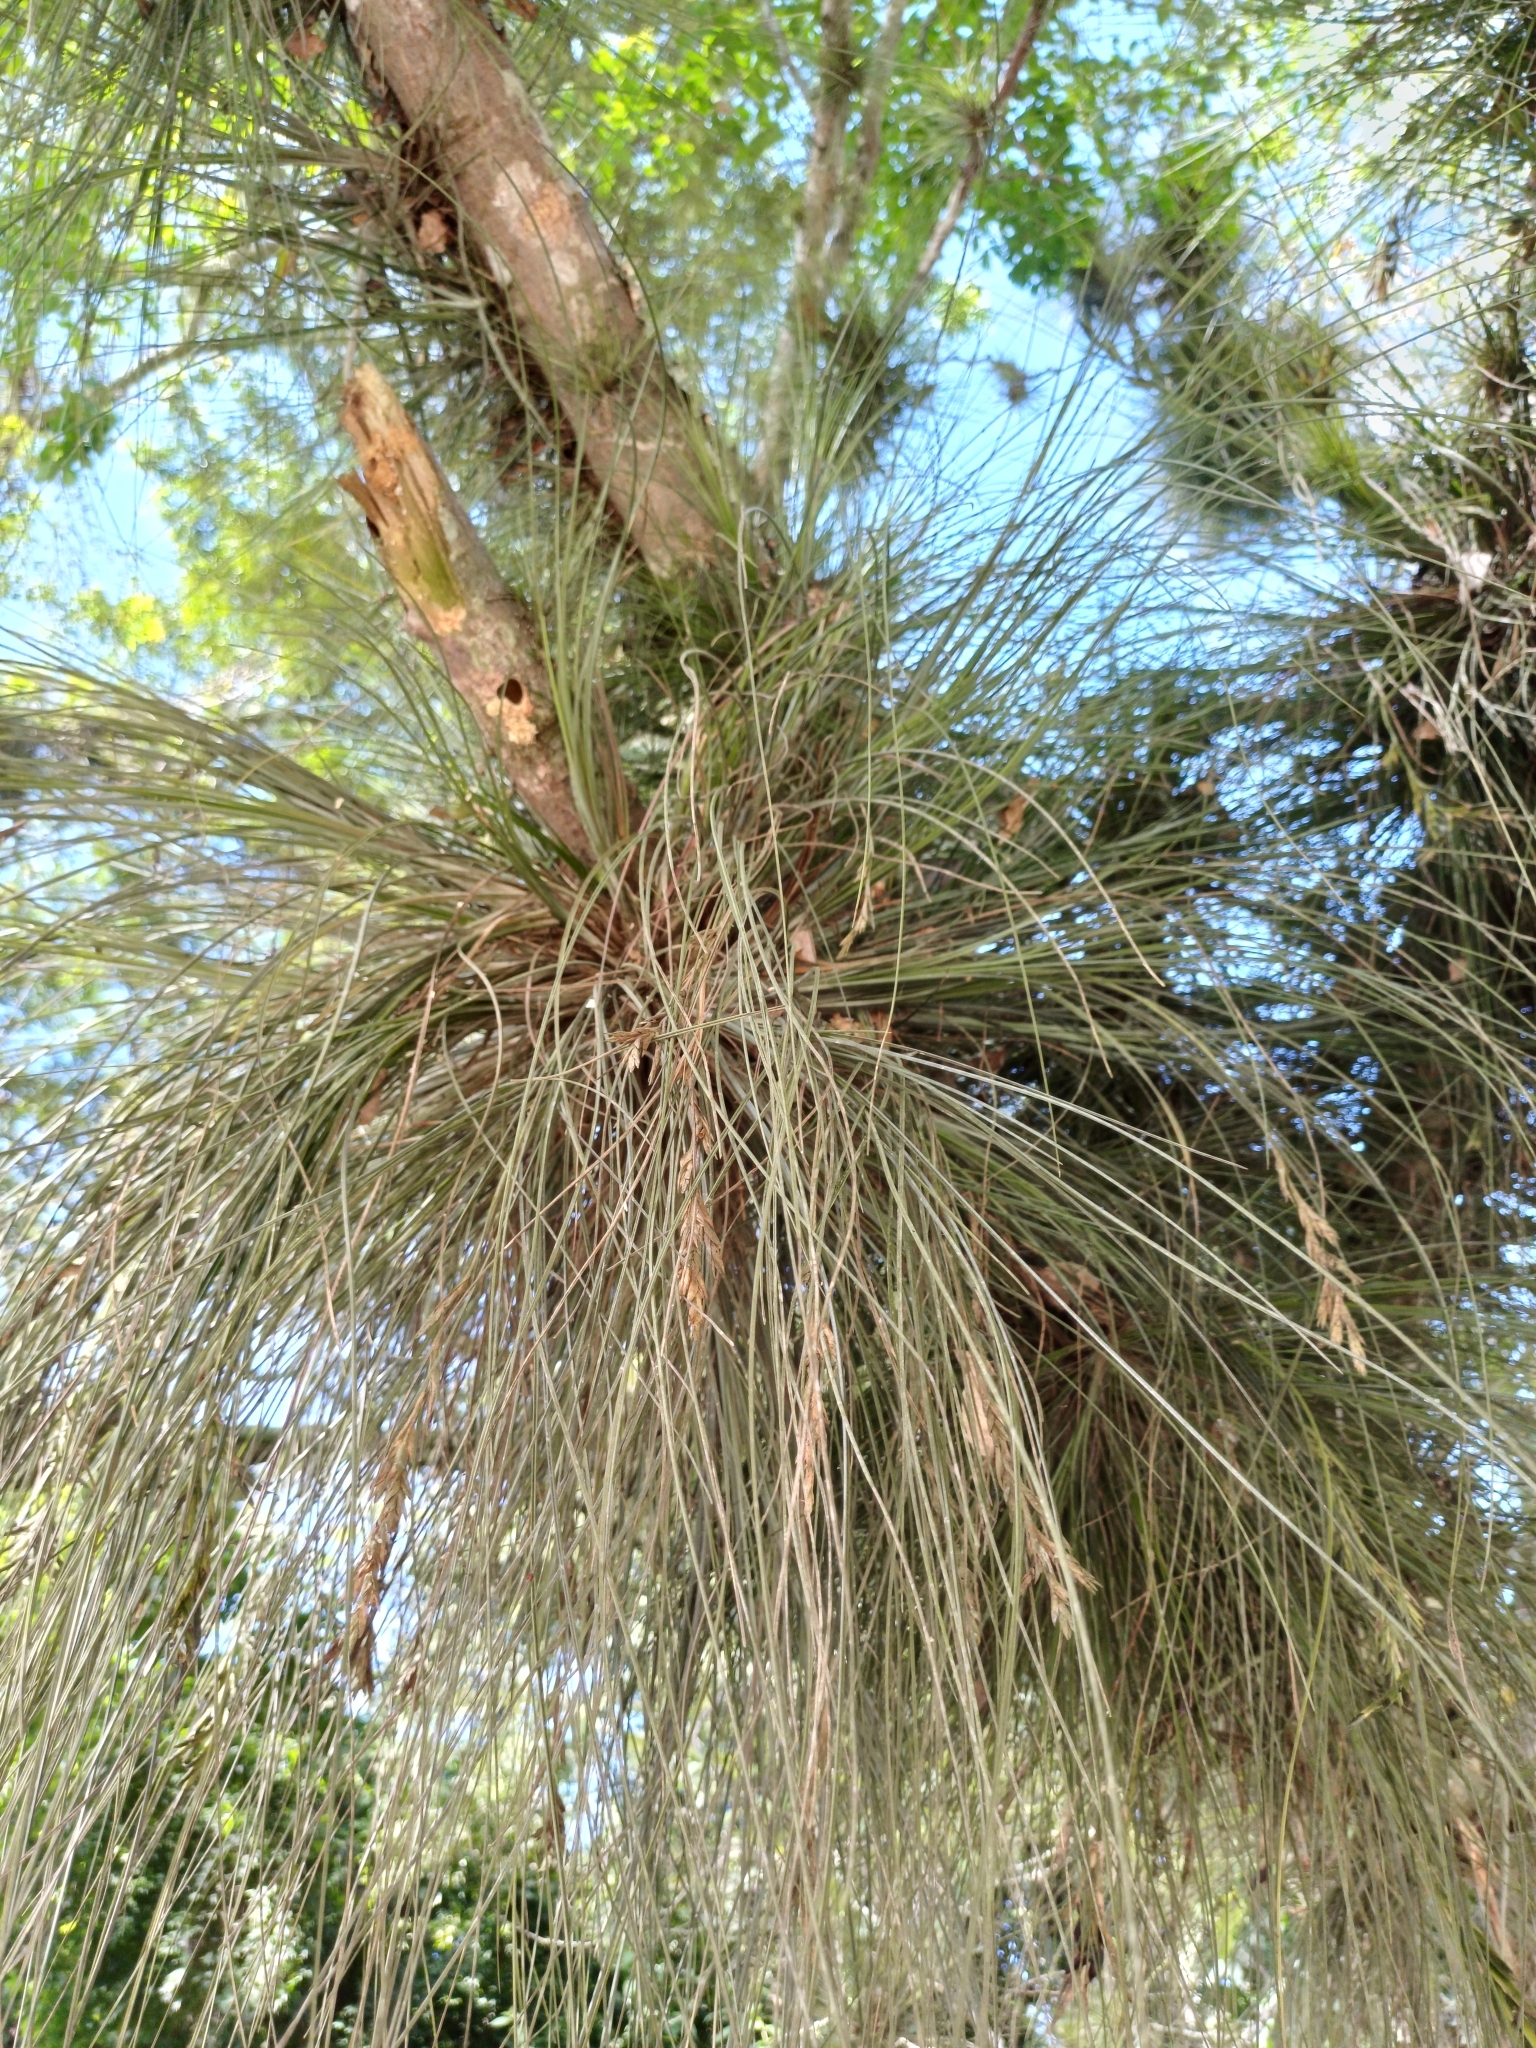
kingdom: Plantae
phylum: Tracheophyta
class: Liliopsida
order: Poales
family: Bromeliaceae
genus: Tillandsia
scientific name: Tillandsia juncea
